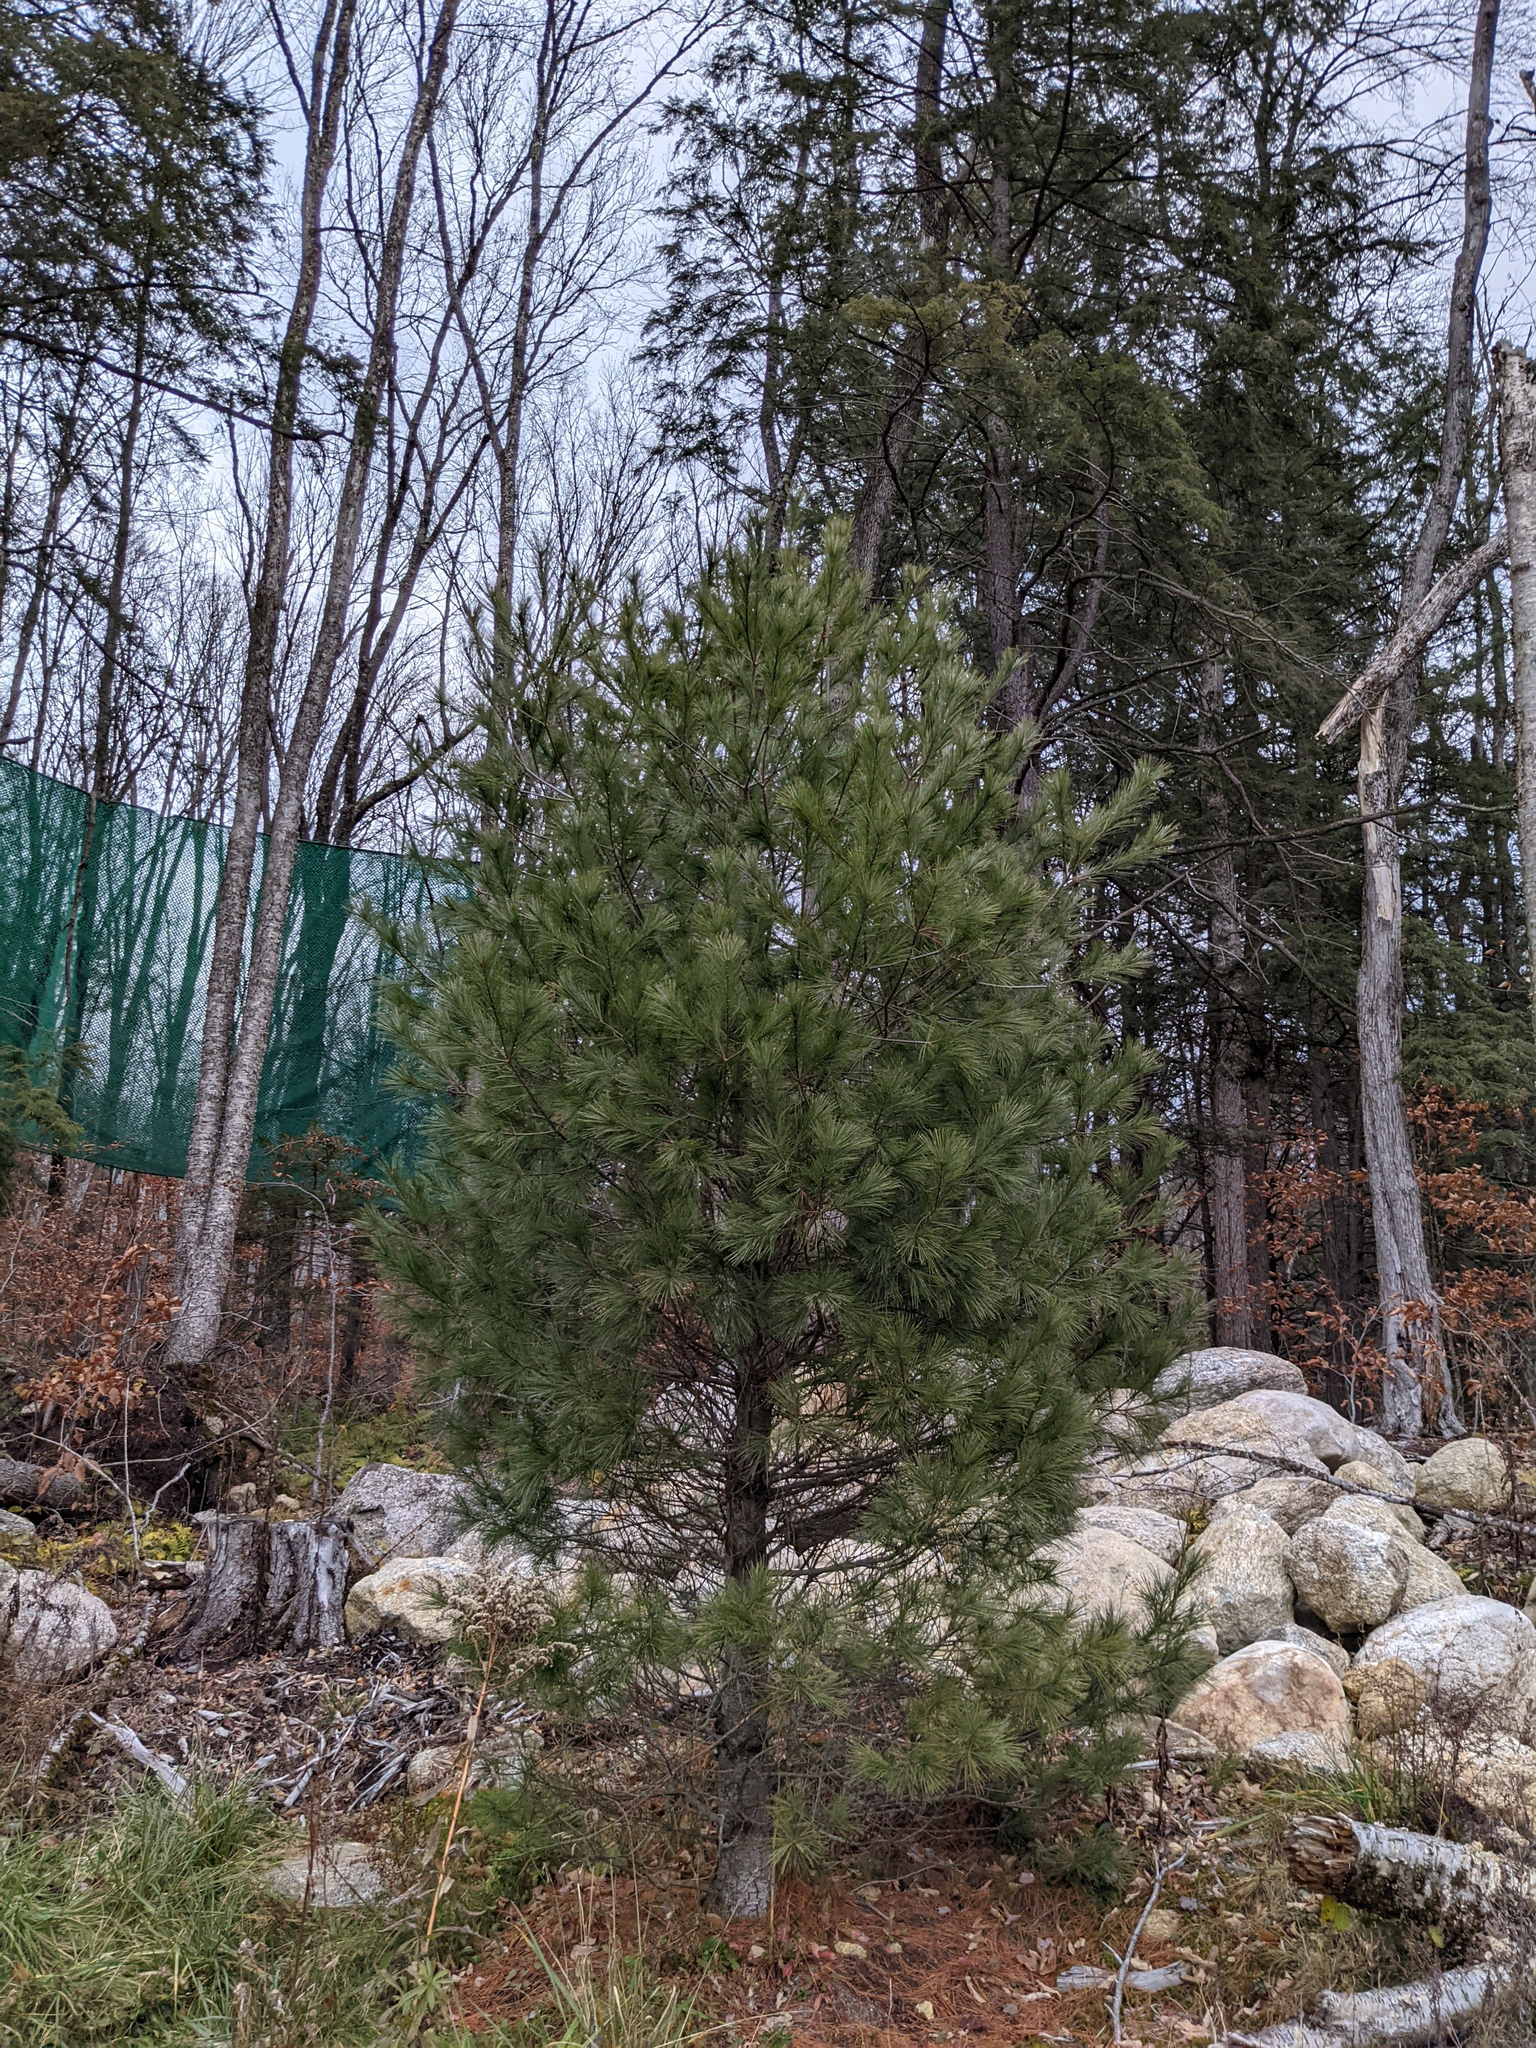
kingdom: Plantae
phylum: Tracheophyta
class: Pinopsida
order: Pinales
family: Pinaceae
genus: Pinus
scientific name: Pinus strobus
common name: Weymouth pine
